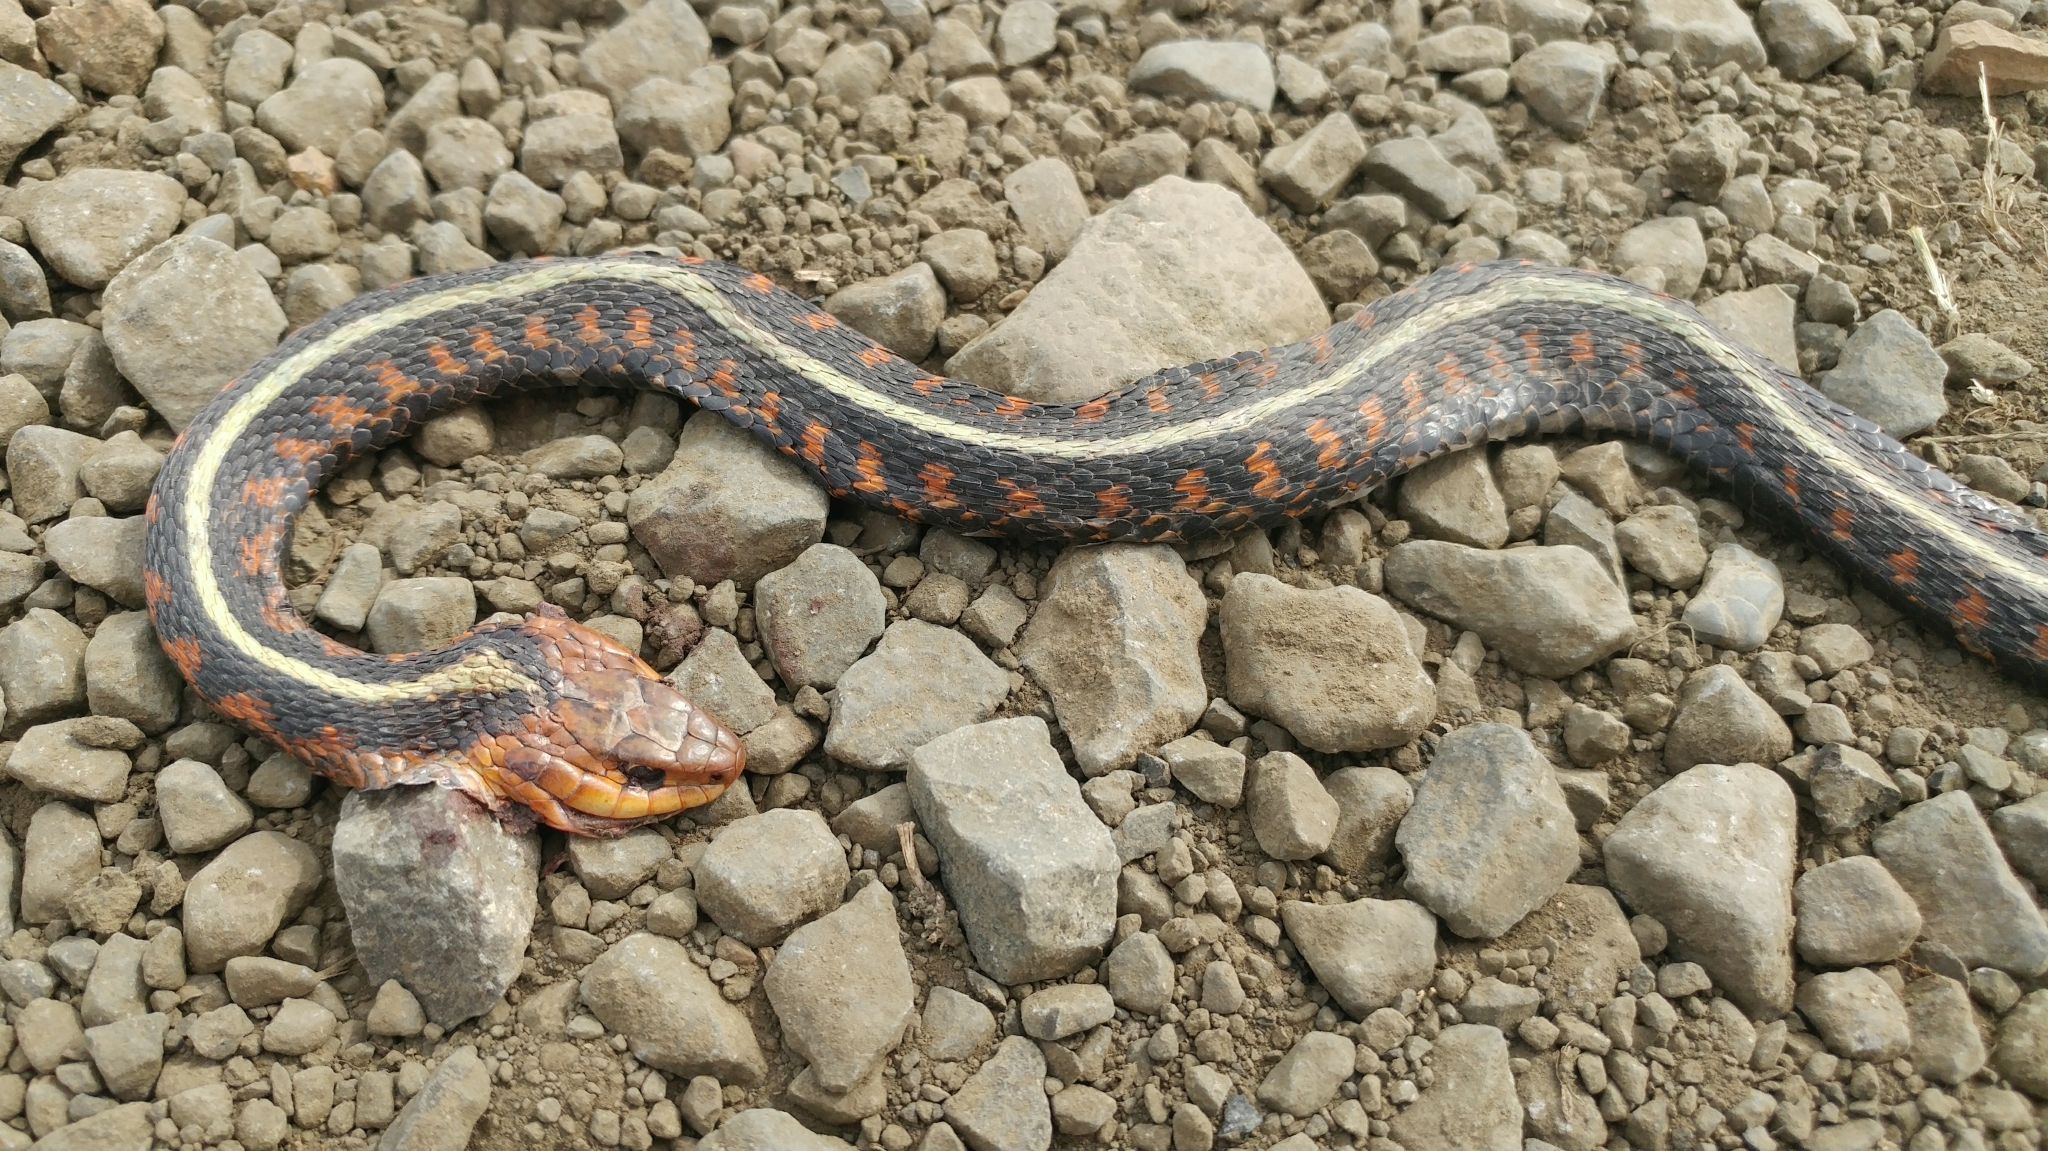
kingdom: Animalia
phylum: Chordata
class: Squamata
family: Colubridae
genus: Thamnophis
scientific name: Thamnophis sirtalis
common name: Common garter snake
